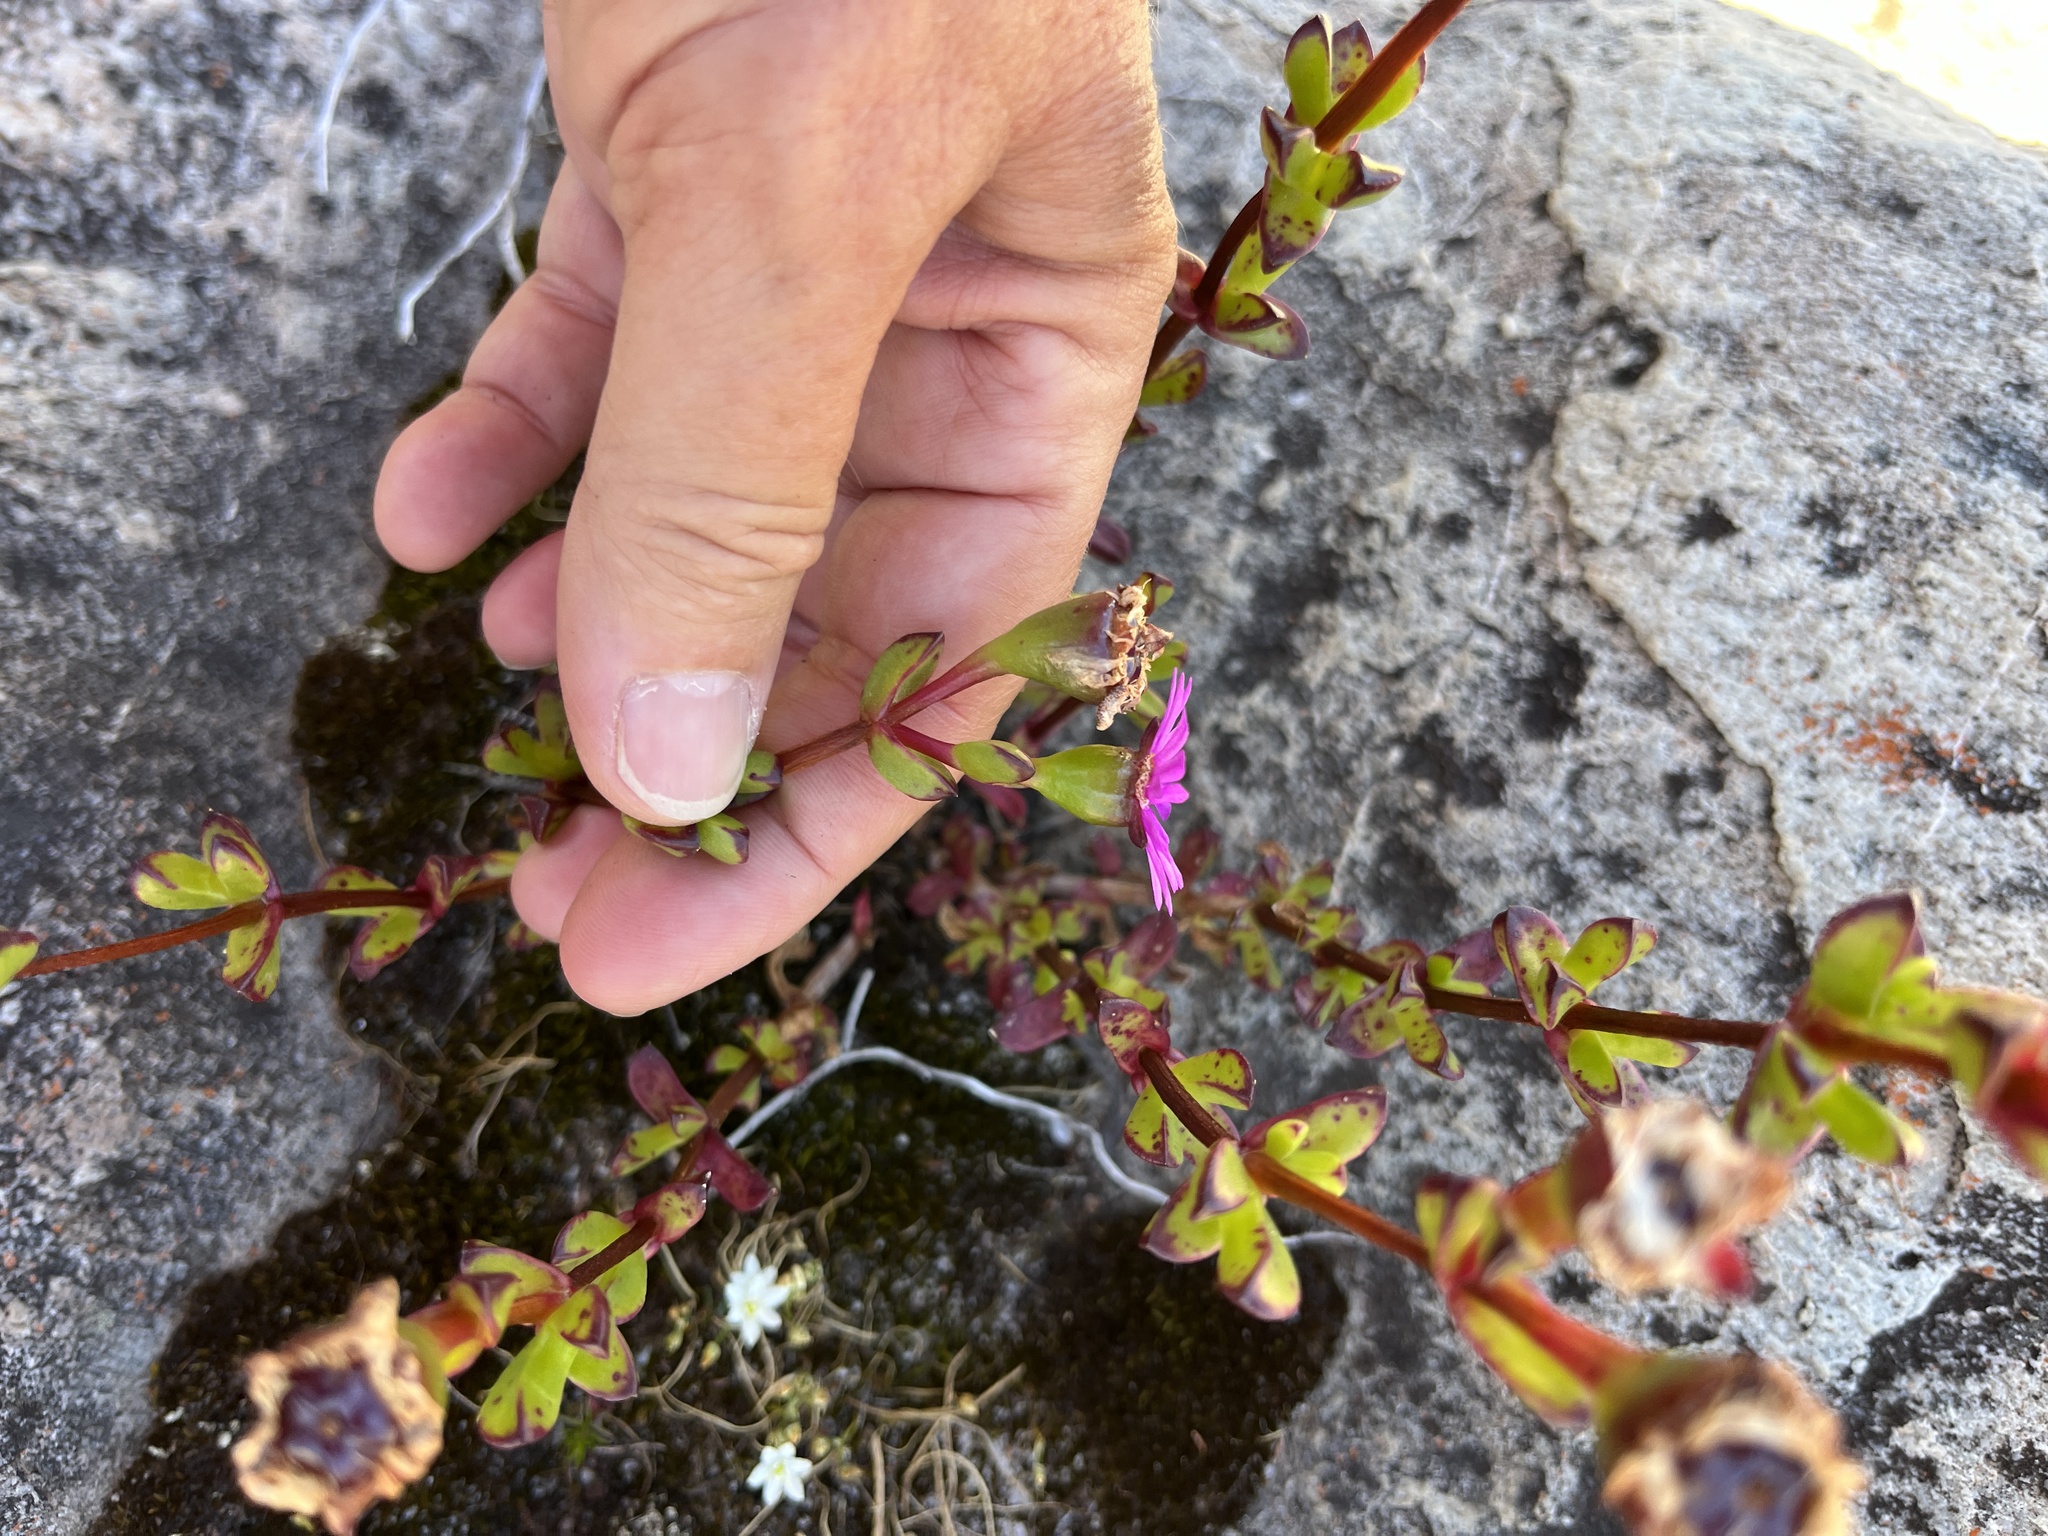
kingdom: Plantae
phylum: Tracheophyta
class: Magnoliopsida
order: Caryophyllales
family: Aizoaceae
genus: Erepsia
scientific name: Erepsia inclaudens
